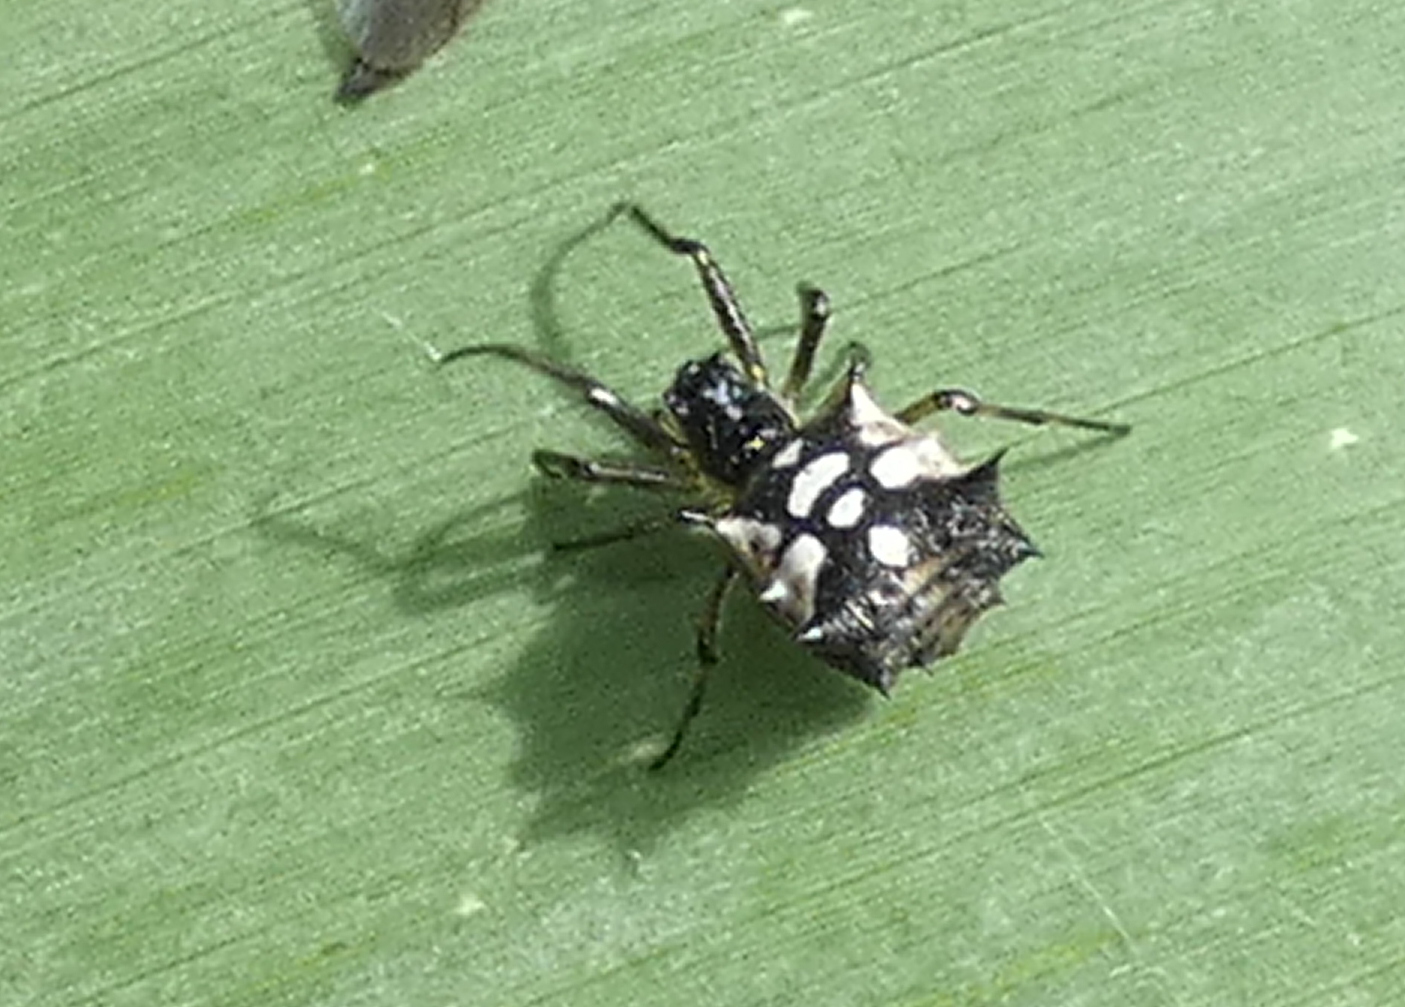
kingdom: Animalia
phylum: Arthropoda
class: Arachnida
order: Araneae
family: Araneidae
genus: Micrathena
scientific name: Micrathena picta
